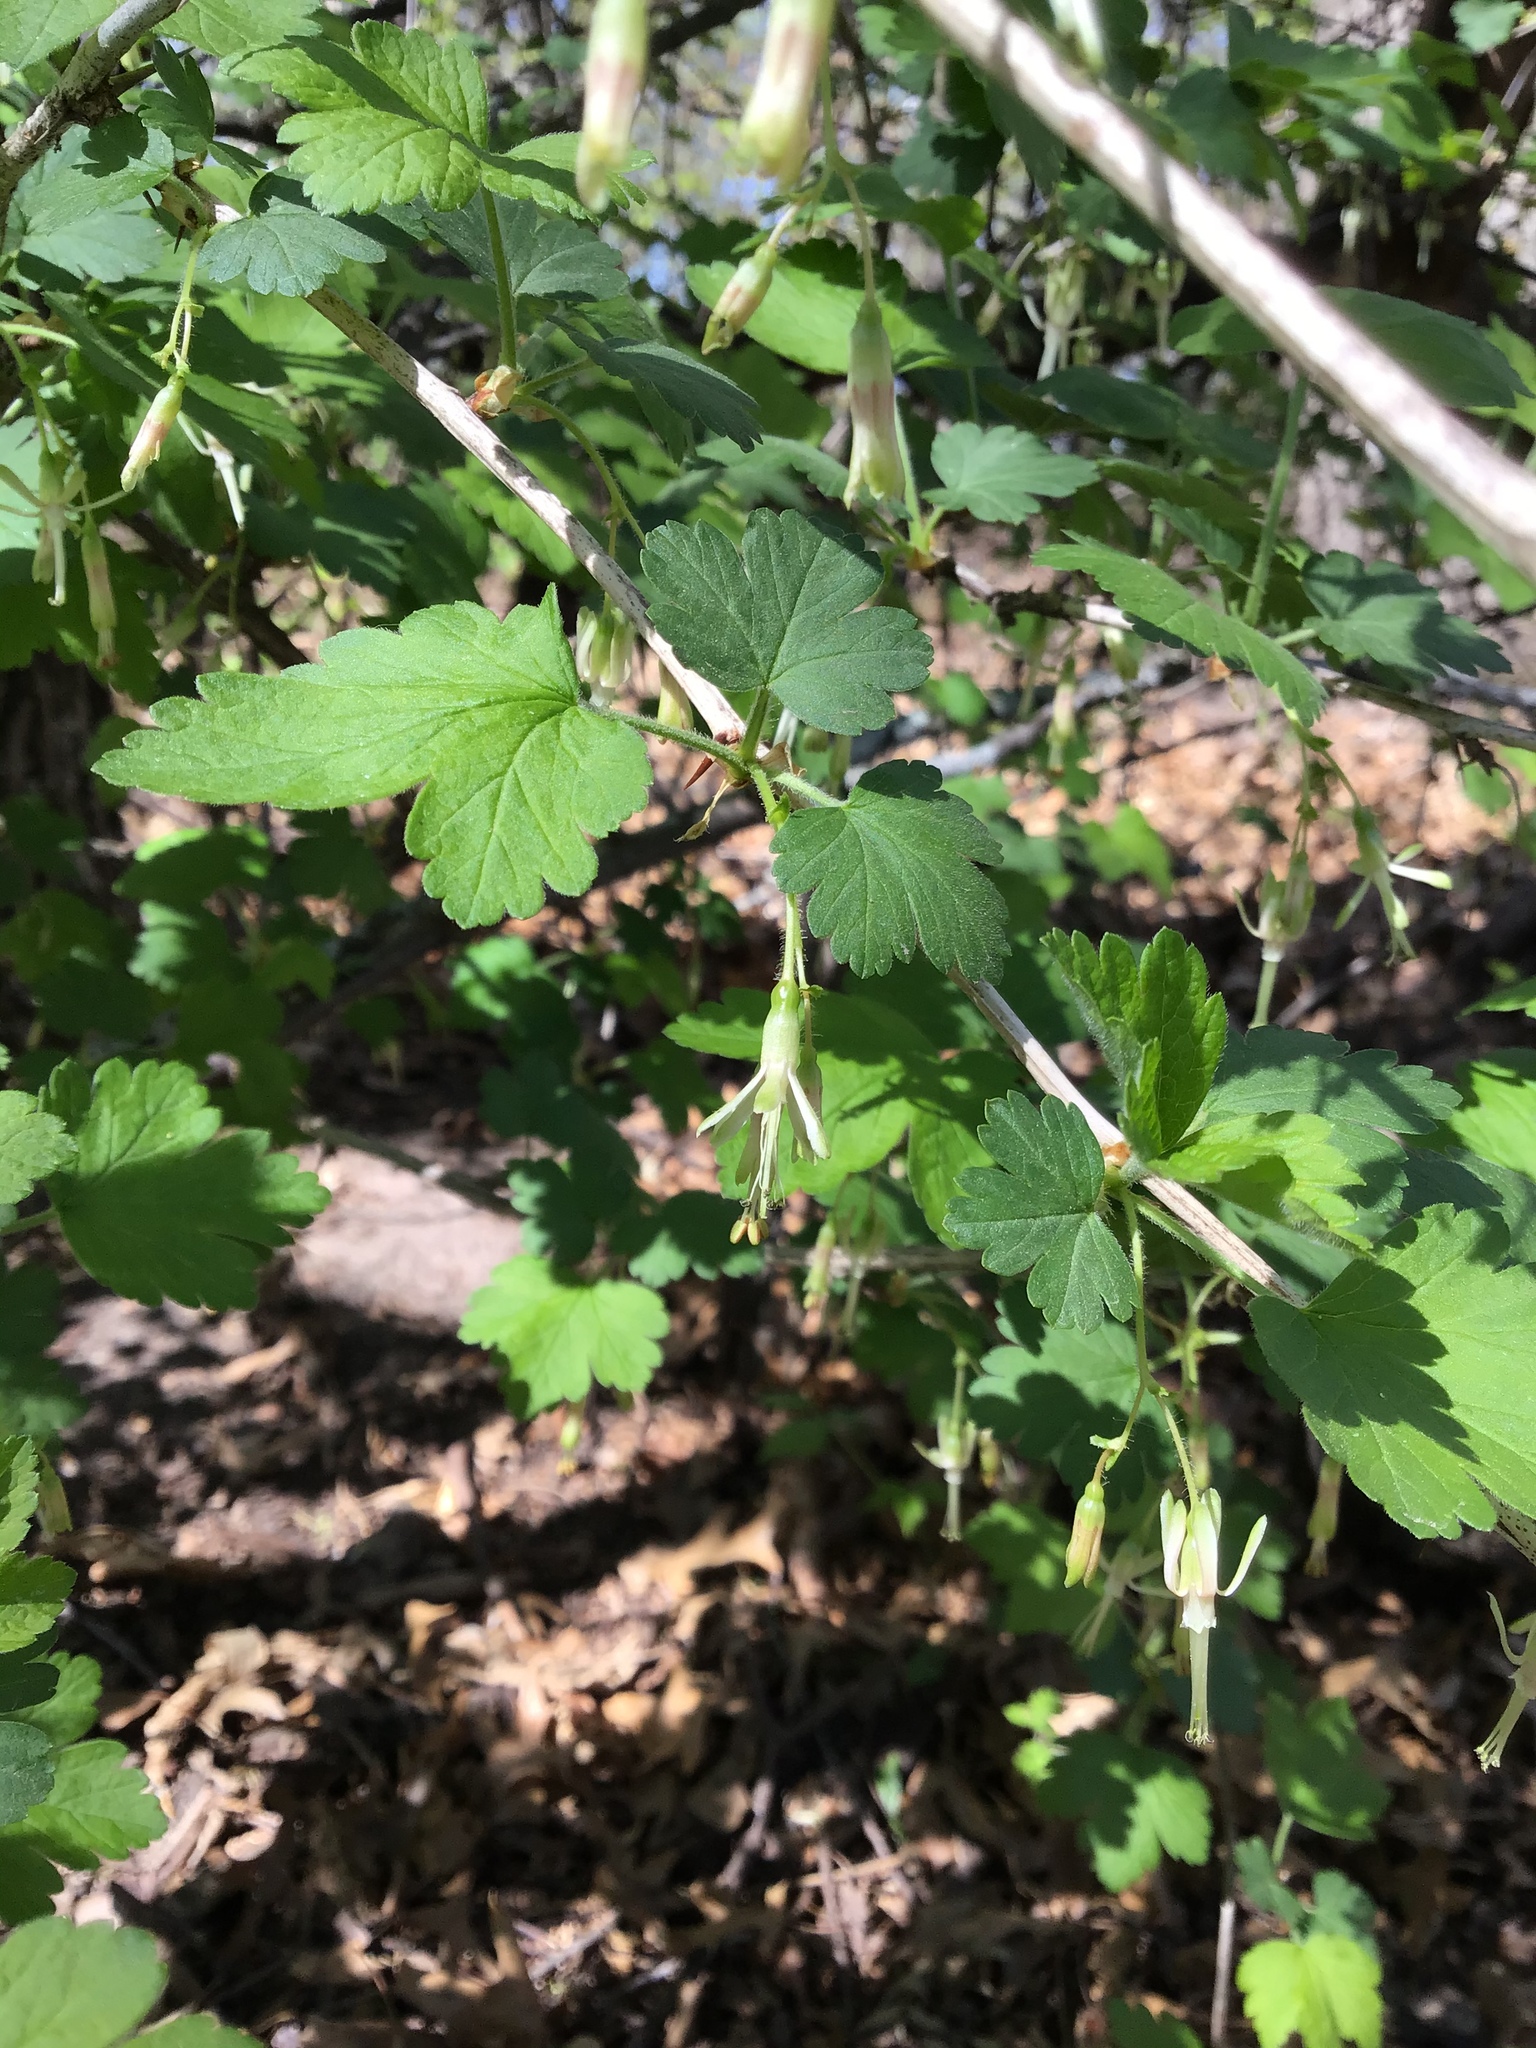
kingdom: Plantae
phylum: Tracheophyta
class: Magnoliopsida
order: Saxifragales
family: Grossulariaceae
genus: Ribes
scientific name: Ribes missouriense
